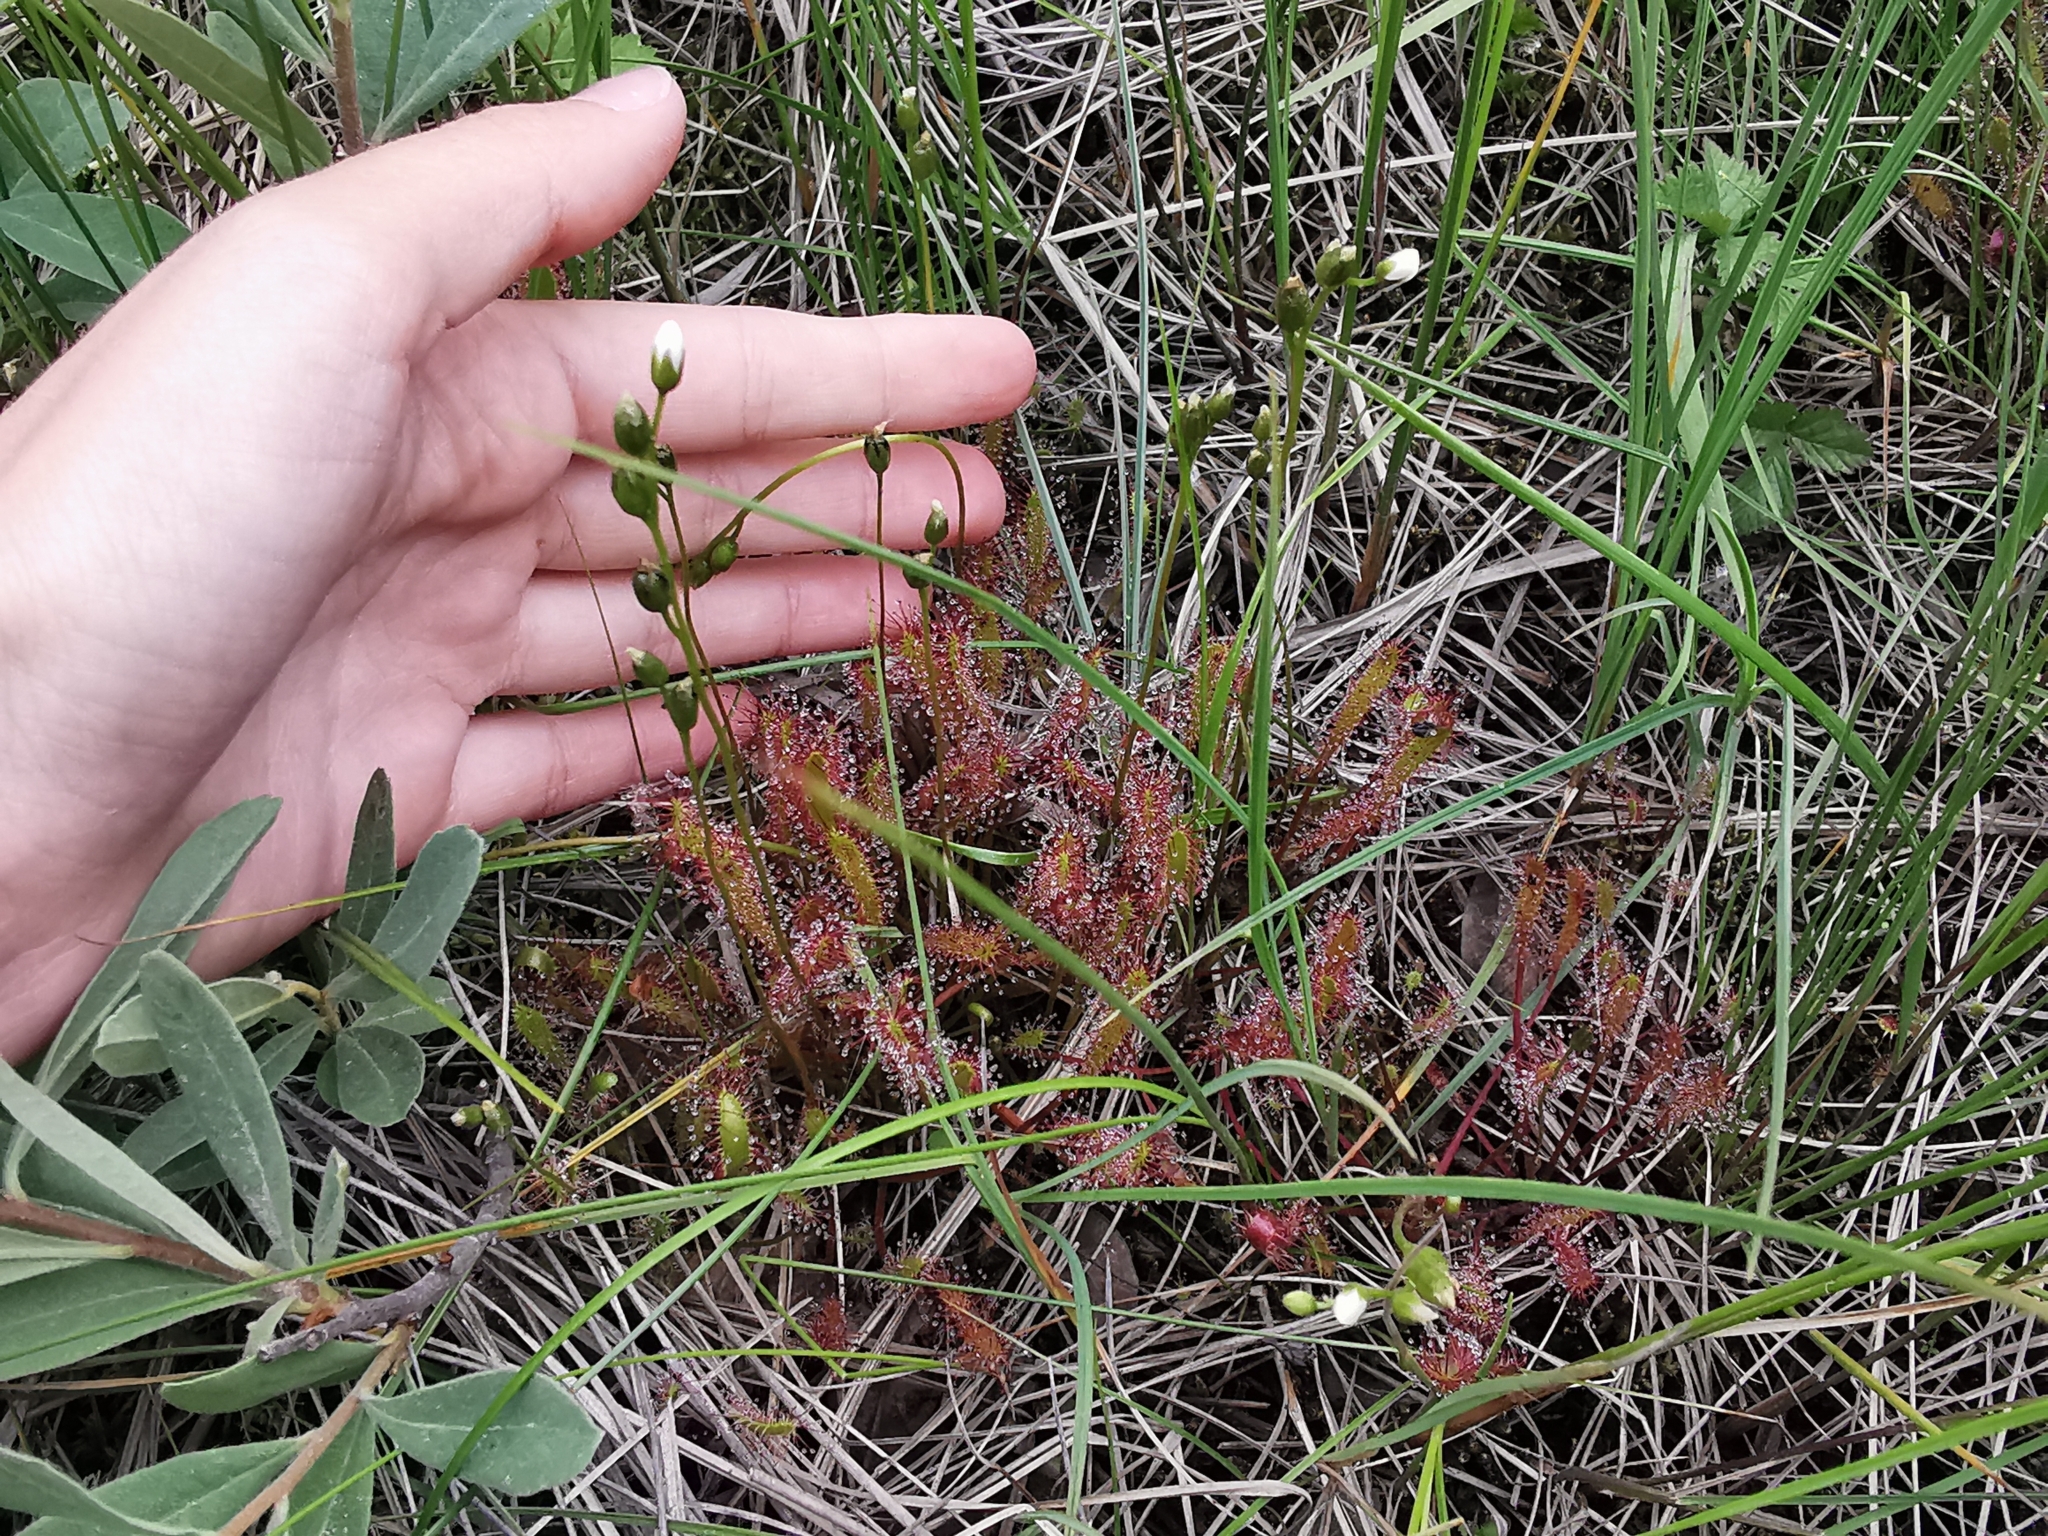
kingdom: Plantae
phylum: Tracheophyta
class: Magnoliopsida
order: Caryophyllales
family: Droseraceae
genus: Drosera
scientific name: Drosera anglica
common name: Great sundew
